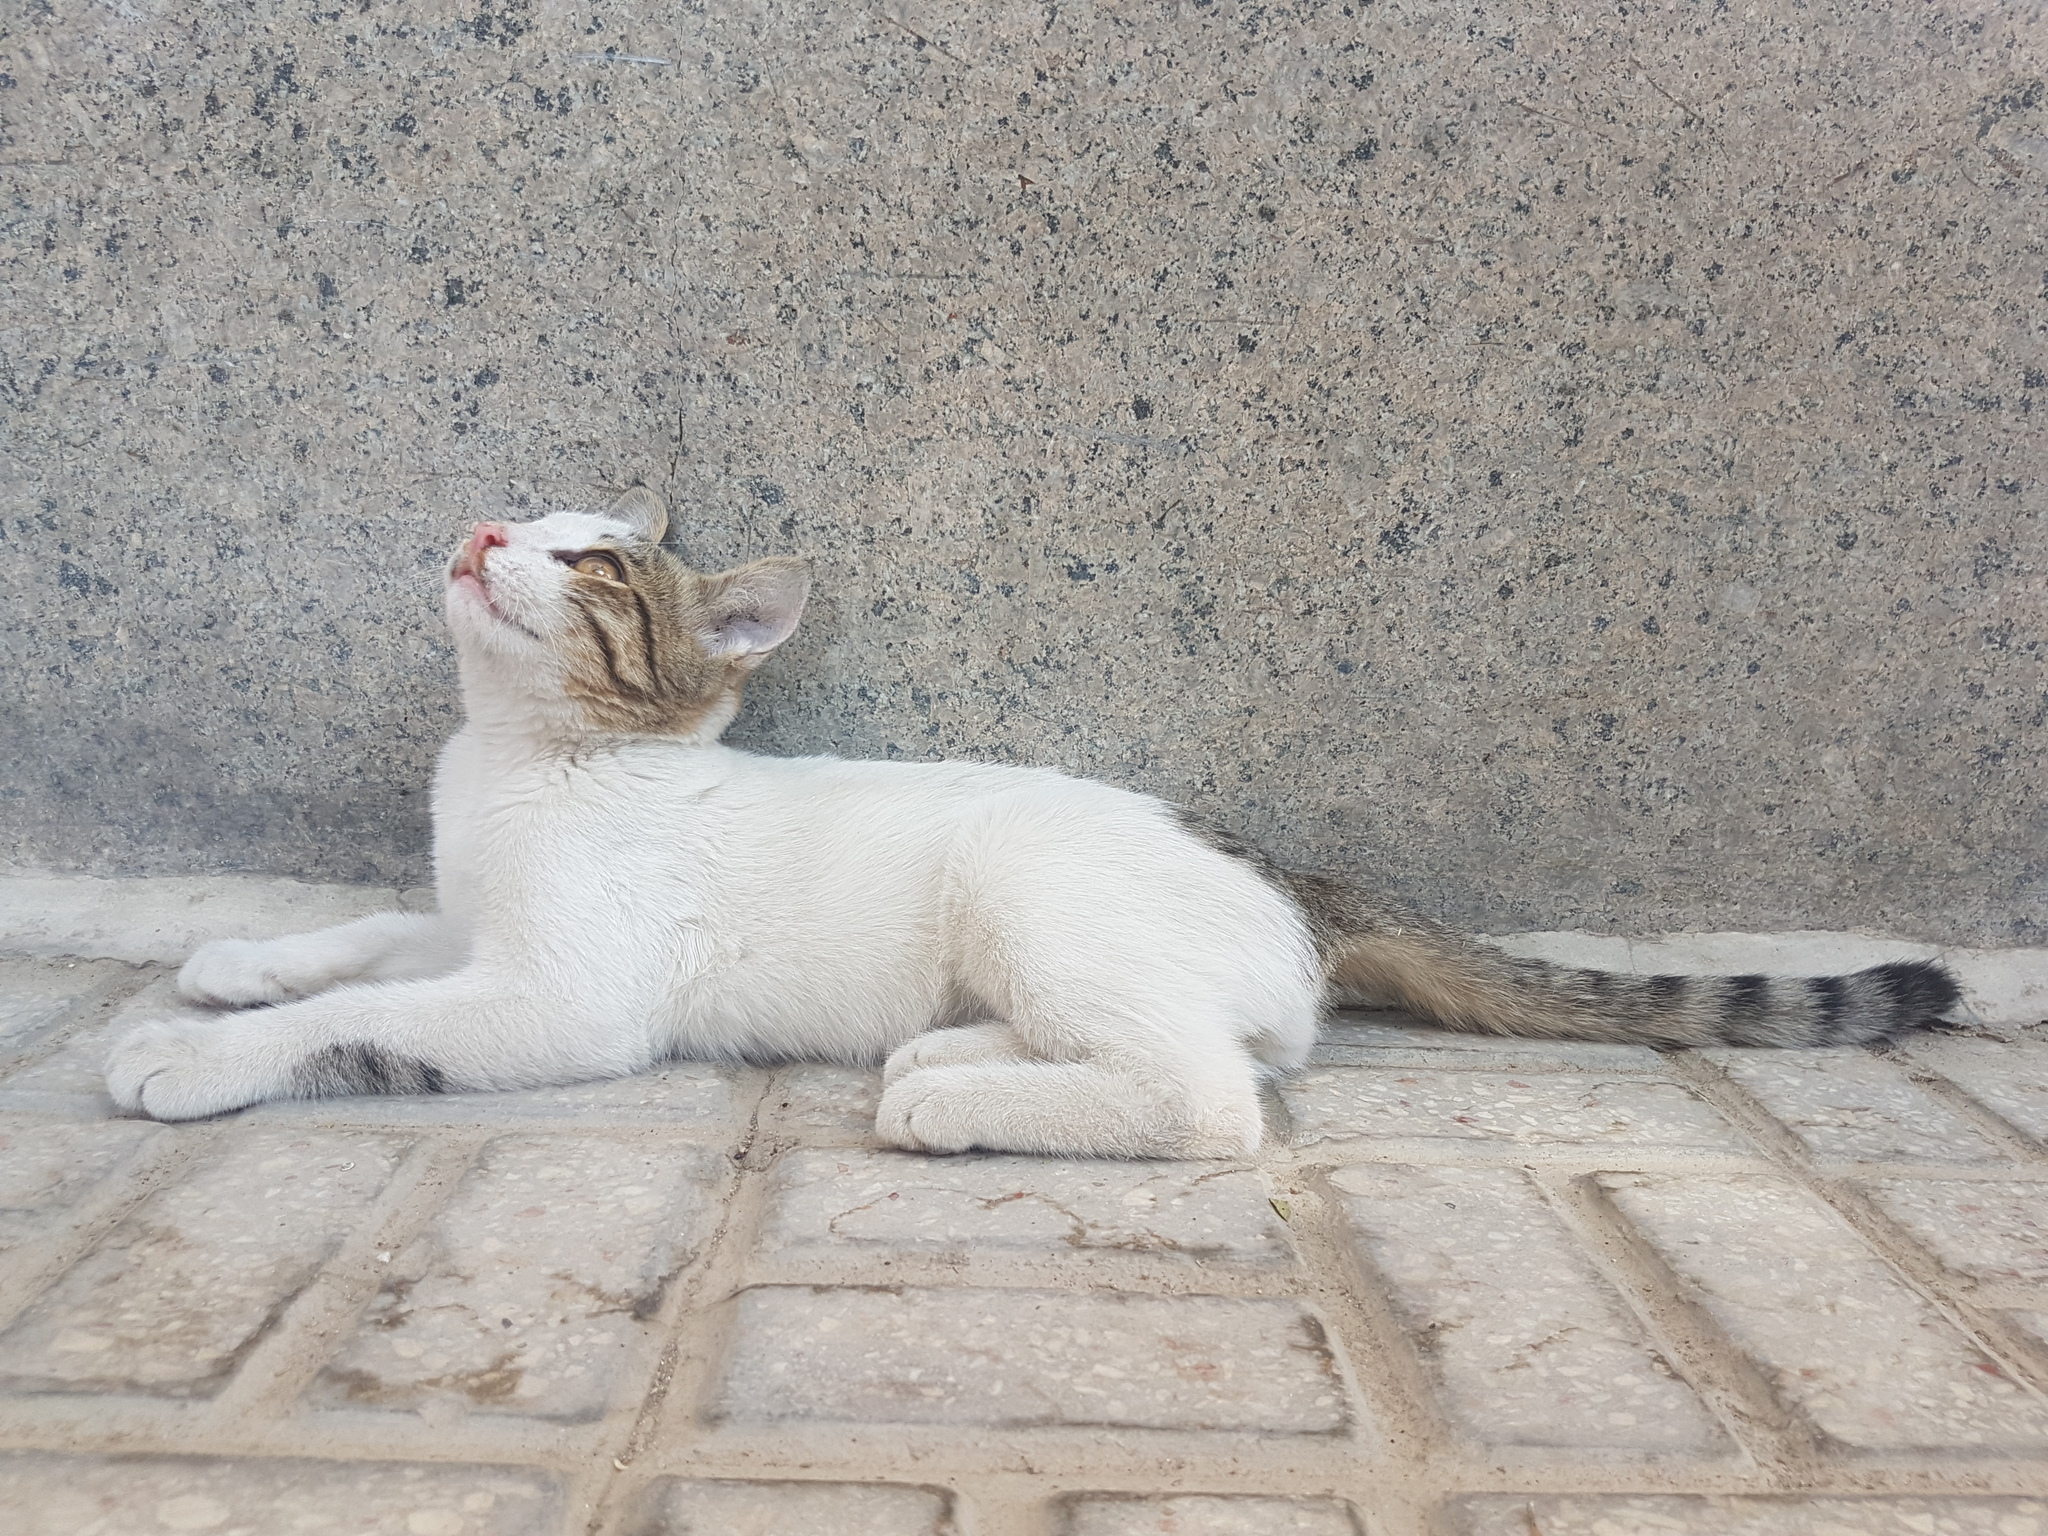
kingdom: Animalia
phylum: Chordata
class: Mammalia
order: Carnivora
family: Felidae
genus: Felis
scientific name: Felis catus
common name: Domestic cat
